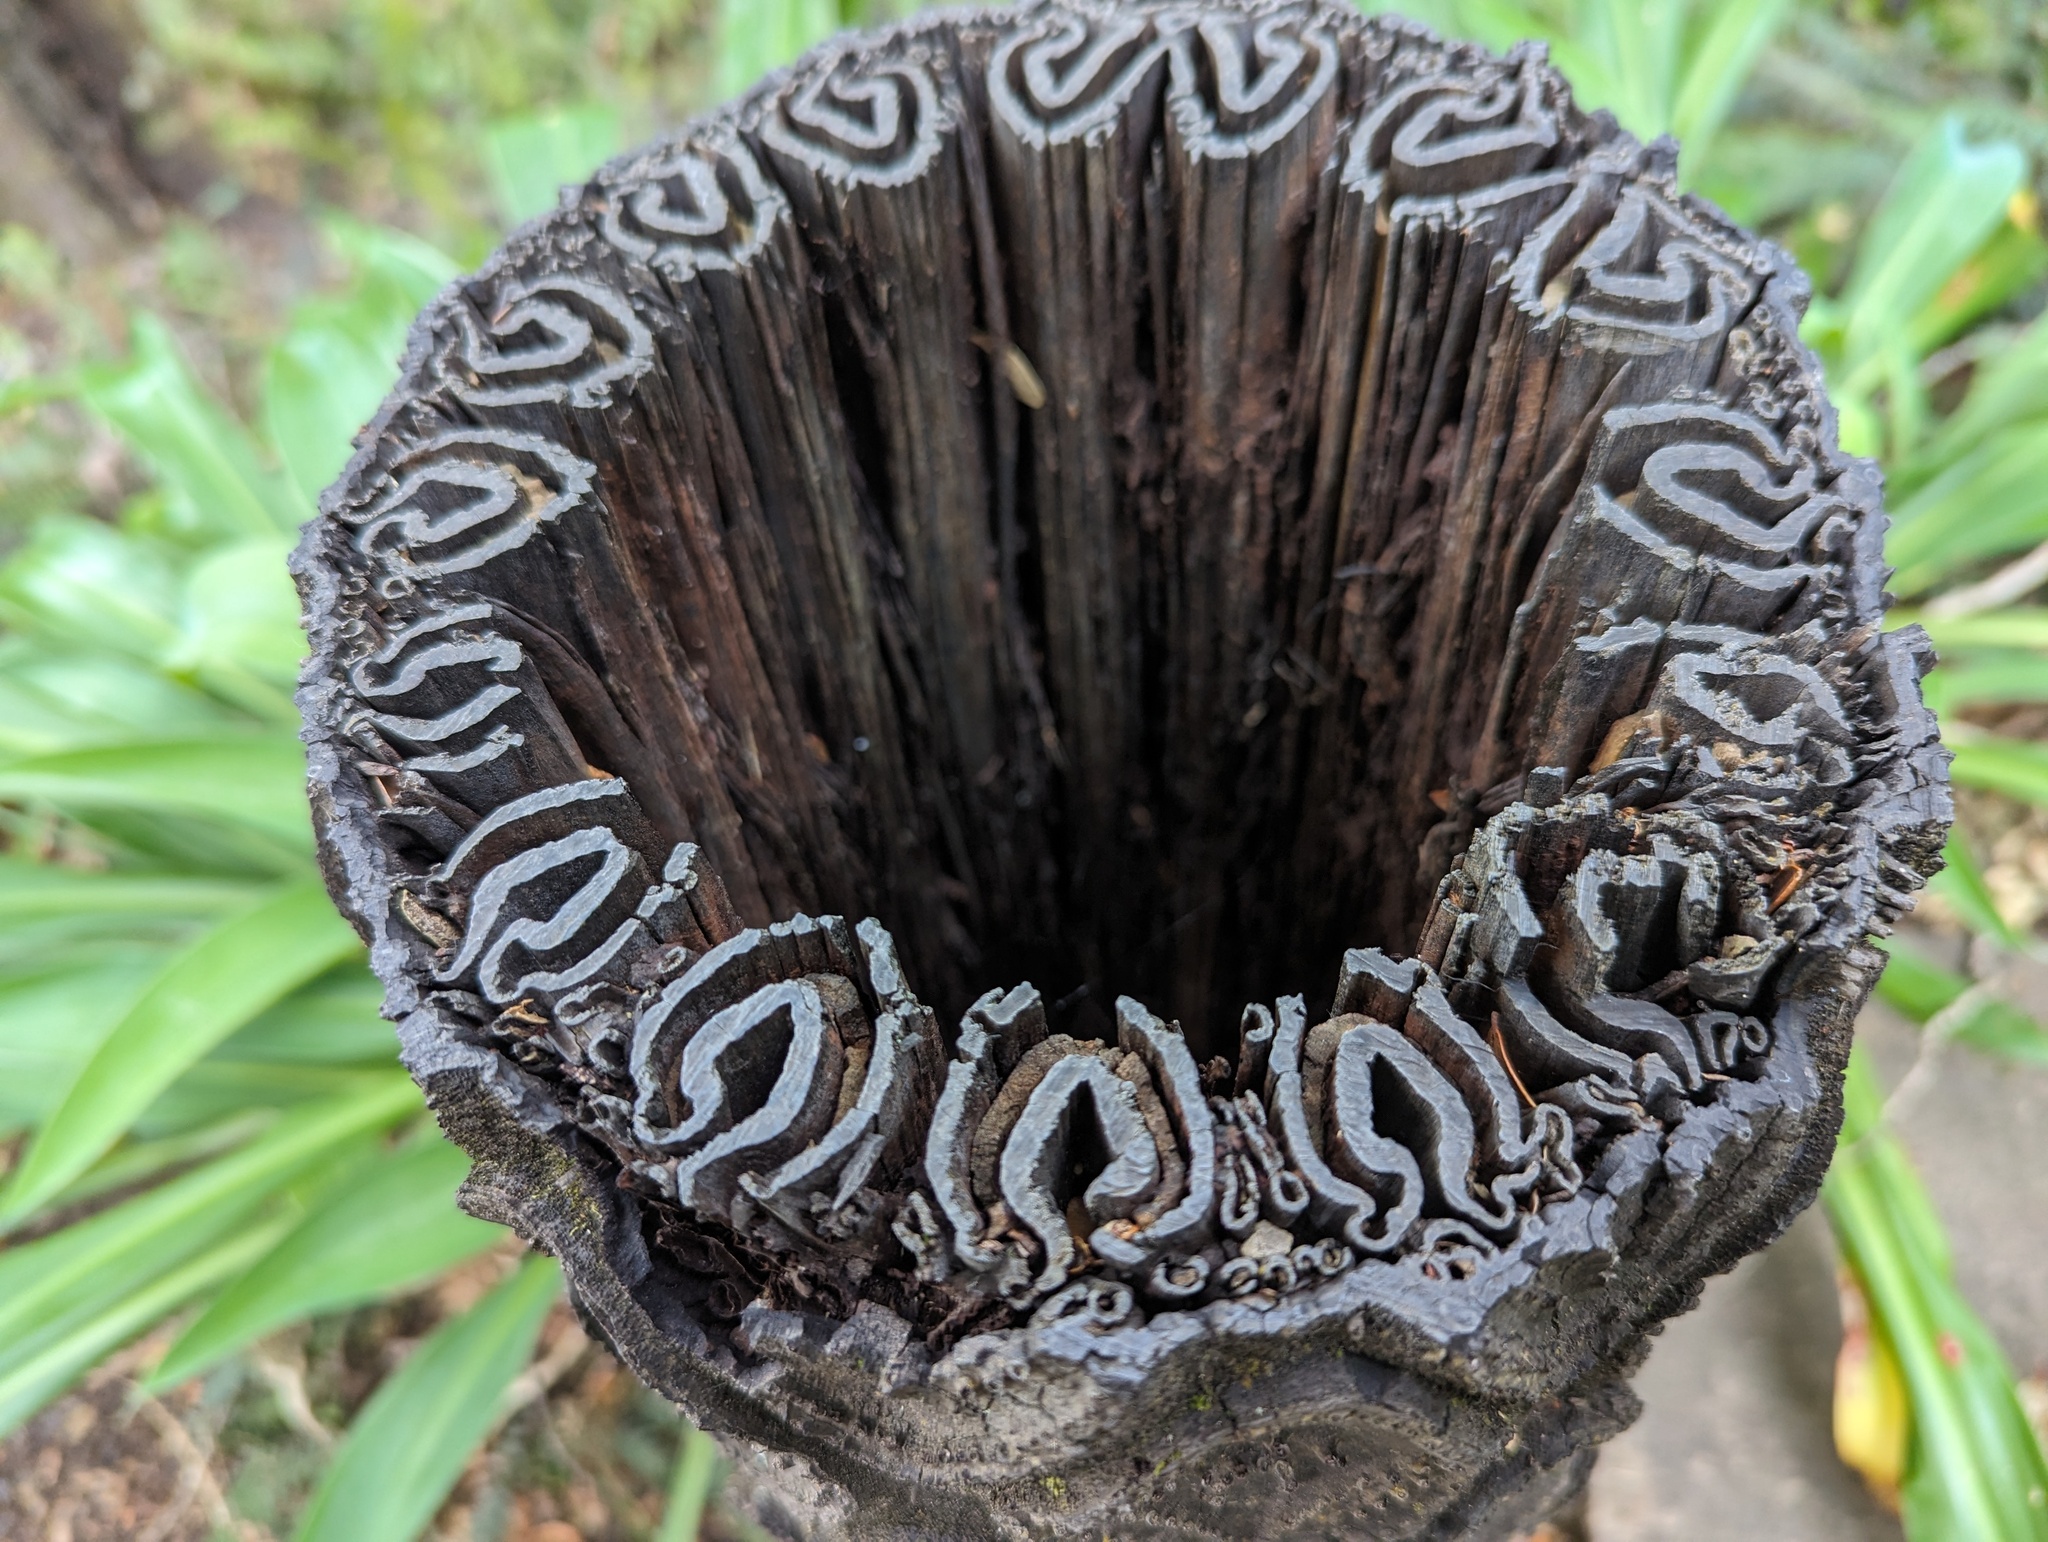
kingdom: Plantae
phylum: Tracheophyta
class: Polypodiopsida
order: Cyatheales
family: Cyatheaceae
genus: Sphaeropteris
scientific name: Sphaeropteris medullaris
